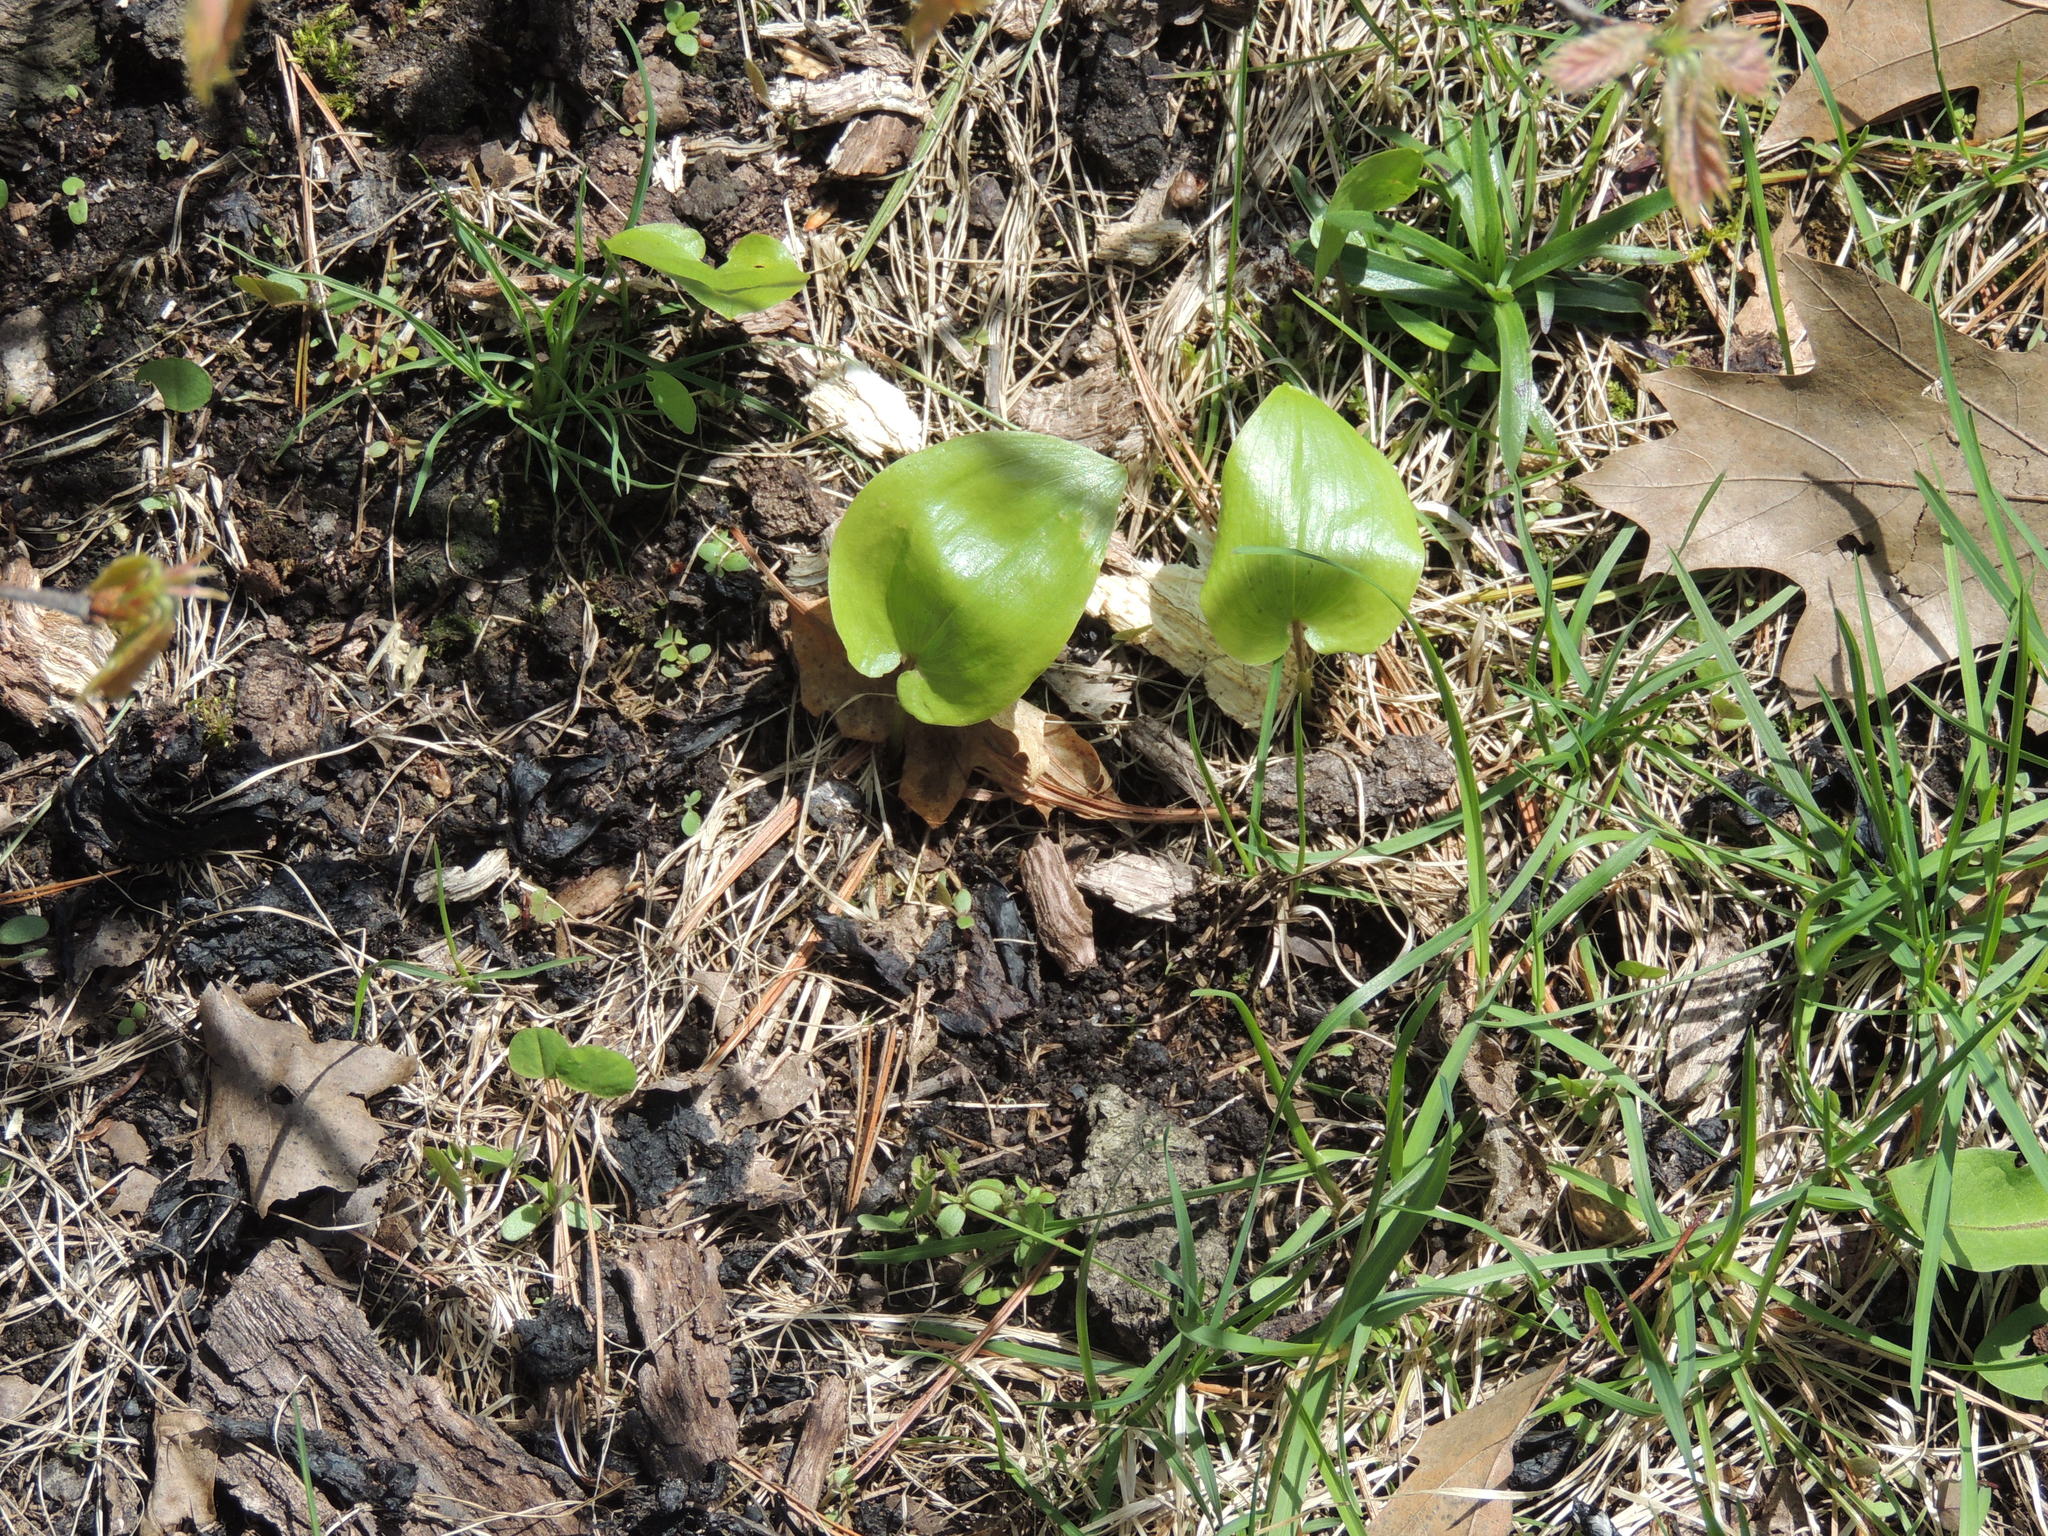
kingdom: Plantae
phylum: Tracheophyta
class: Liliopsida
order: Asparagales
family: Asparagaceae
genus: Maianthemum
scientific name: Maianthemum canadense
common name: False lily-of-the-valley
